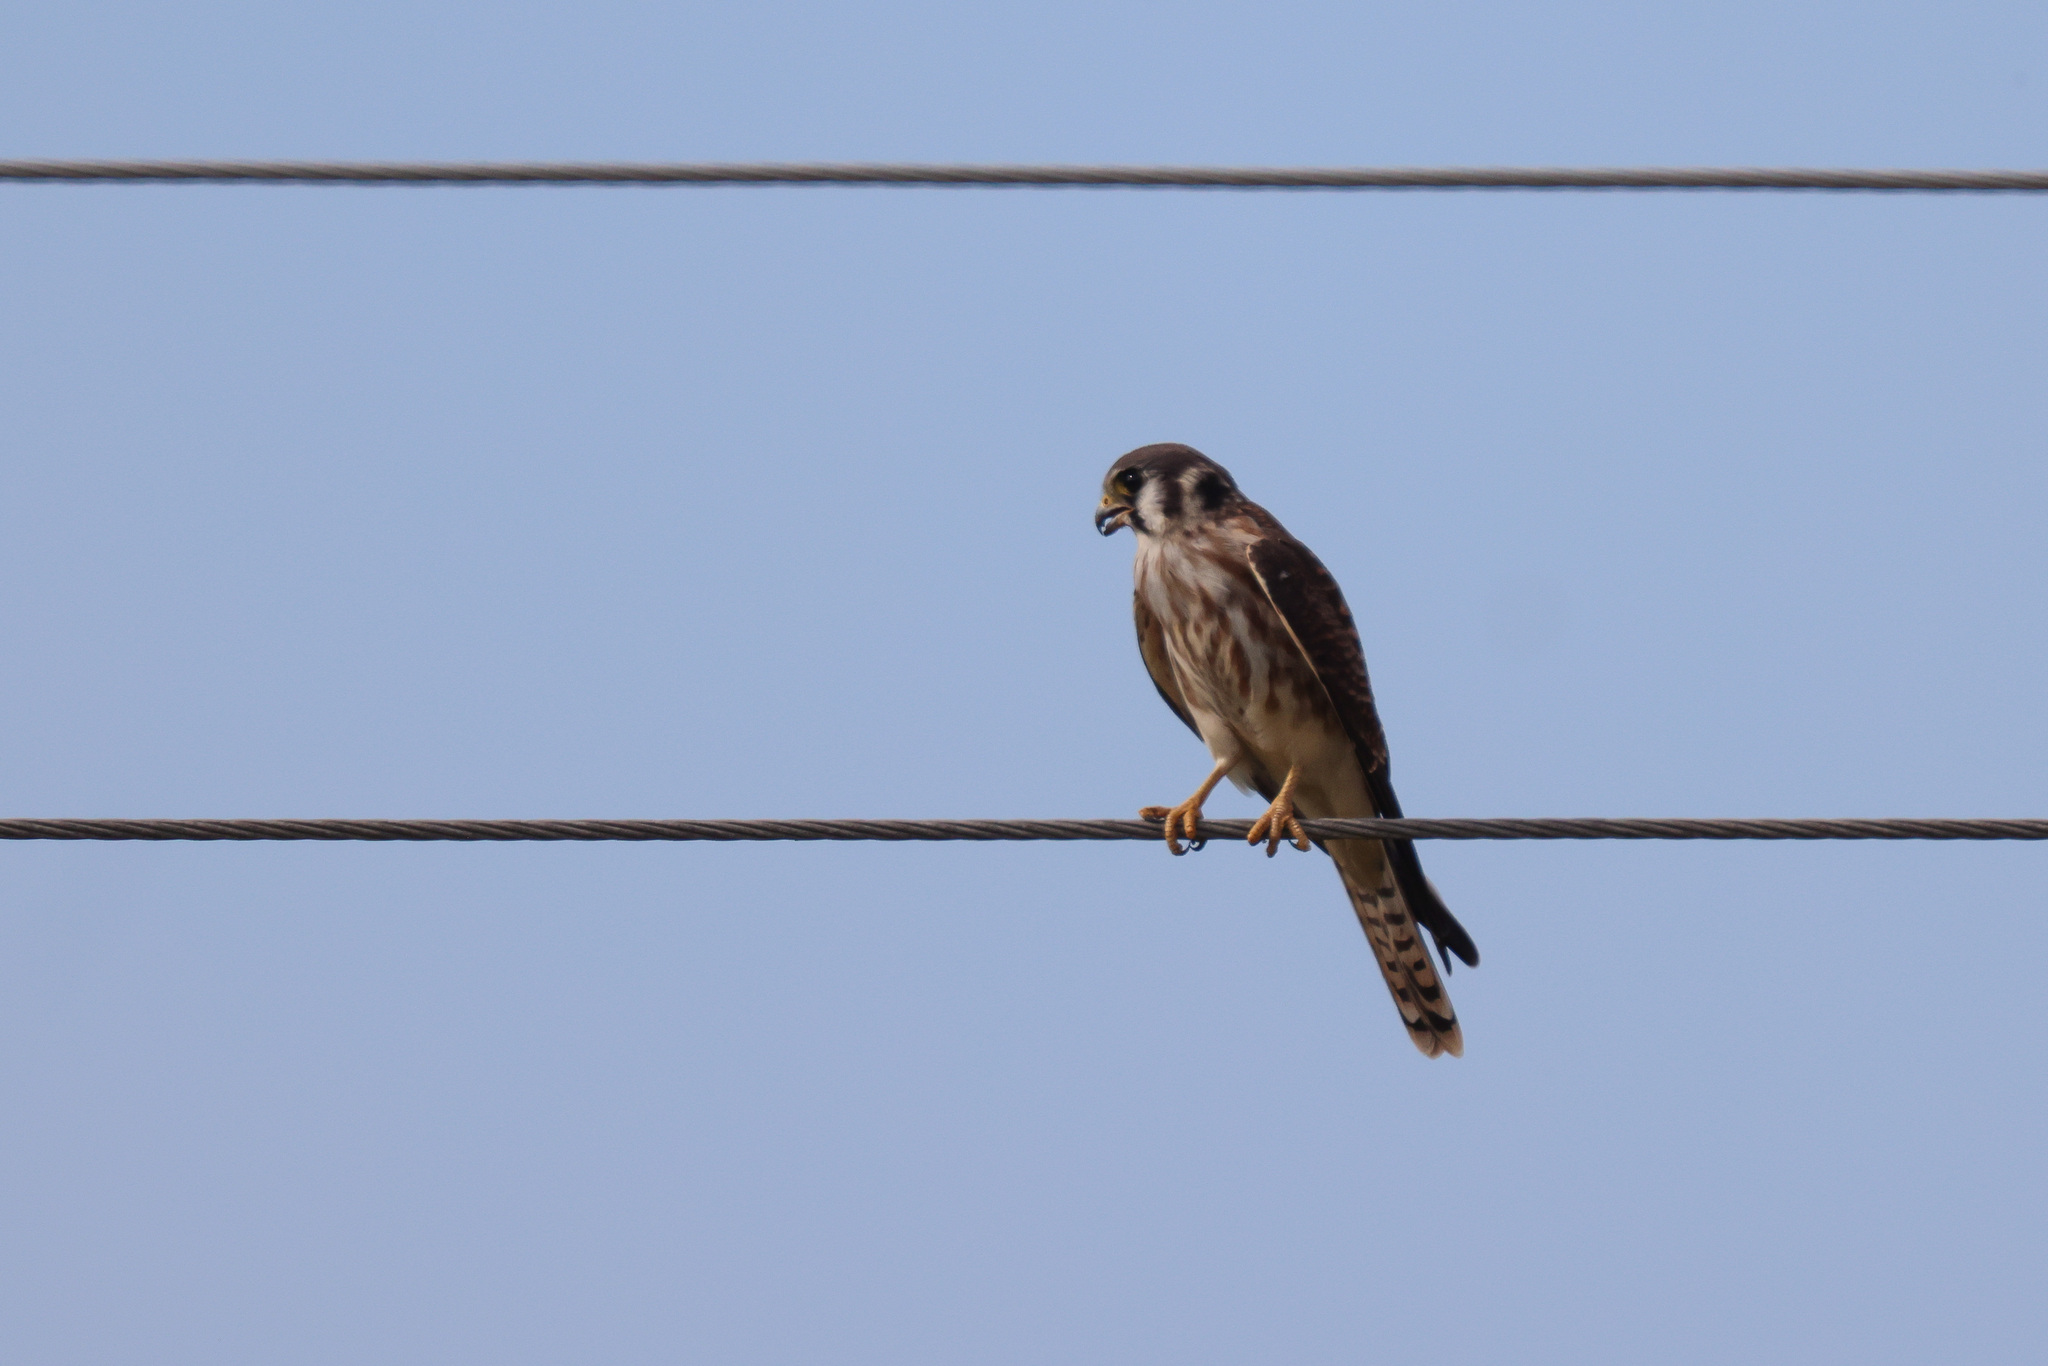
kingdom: Animalia
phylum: Chordata
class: Aves
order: Falconiformes
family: Falconidae
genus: Falco
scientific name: Falco sparverius
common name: American kestrel
